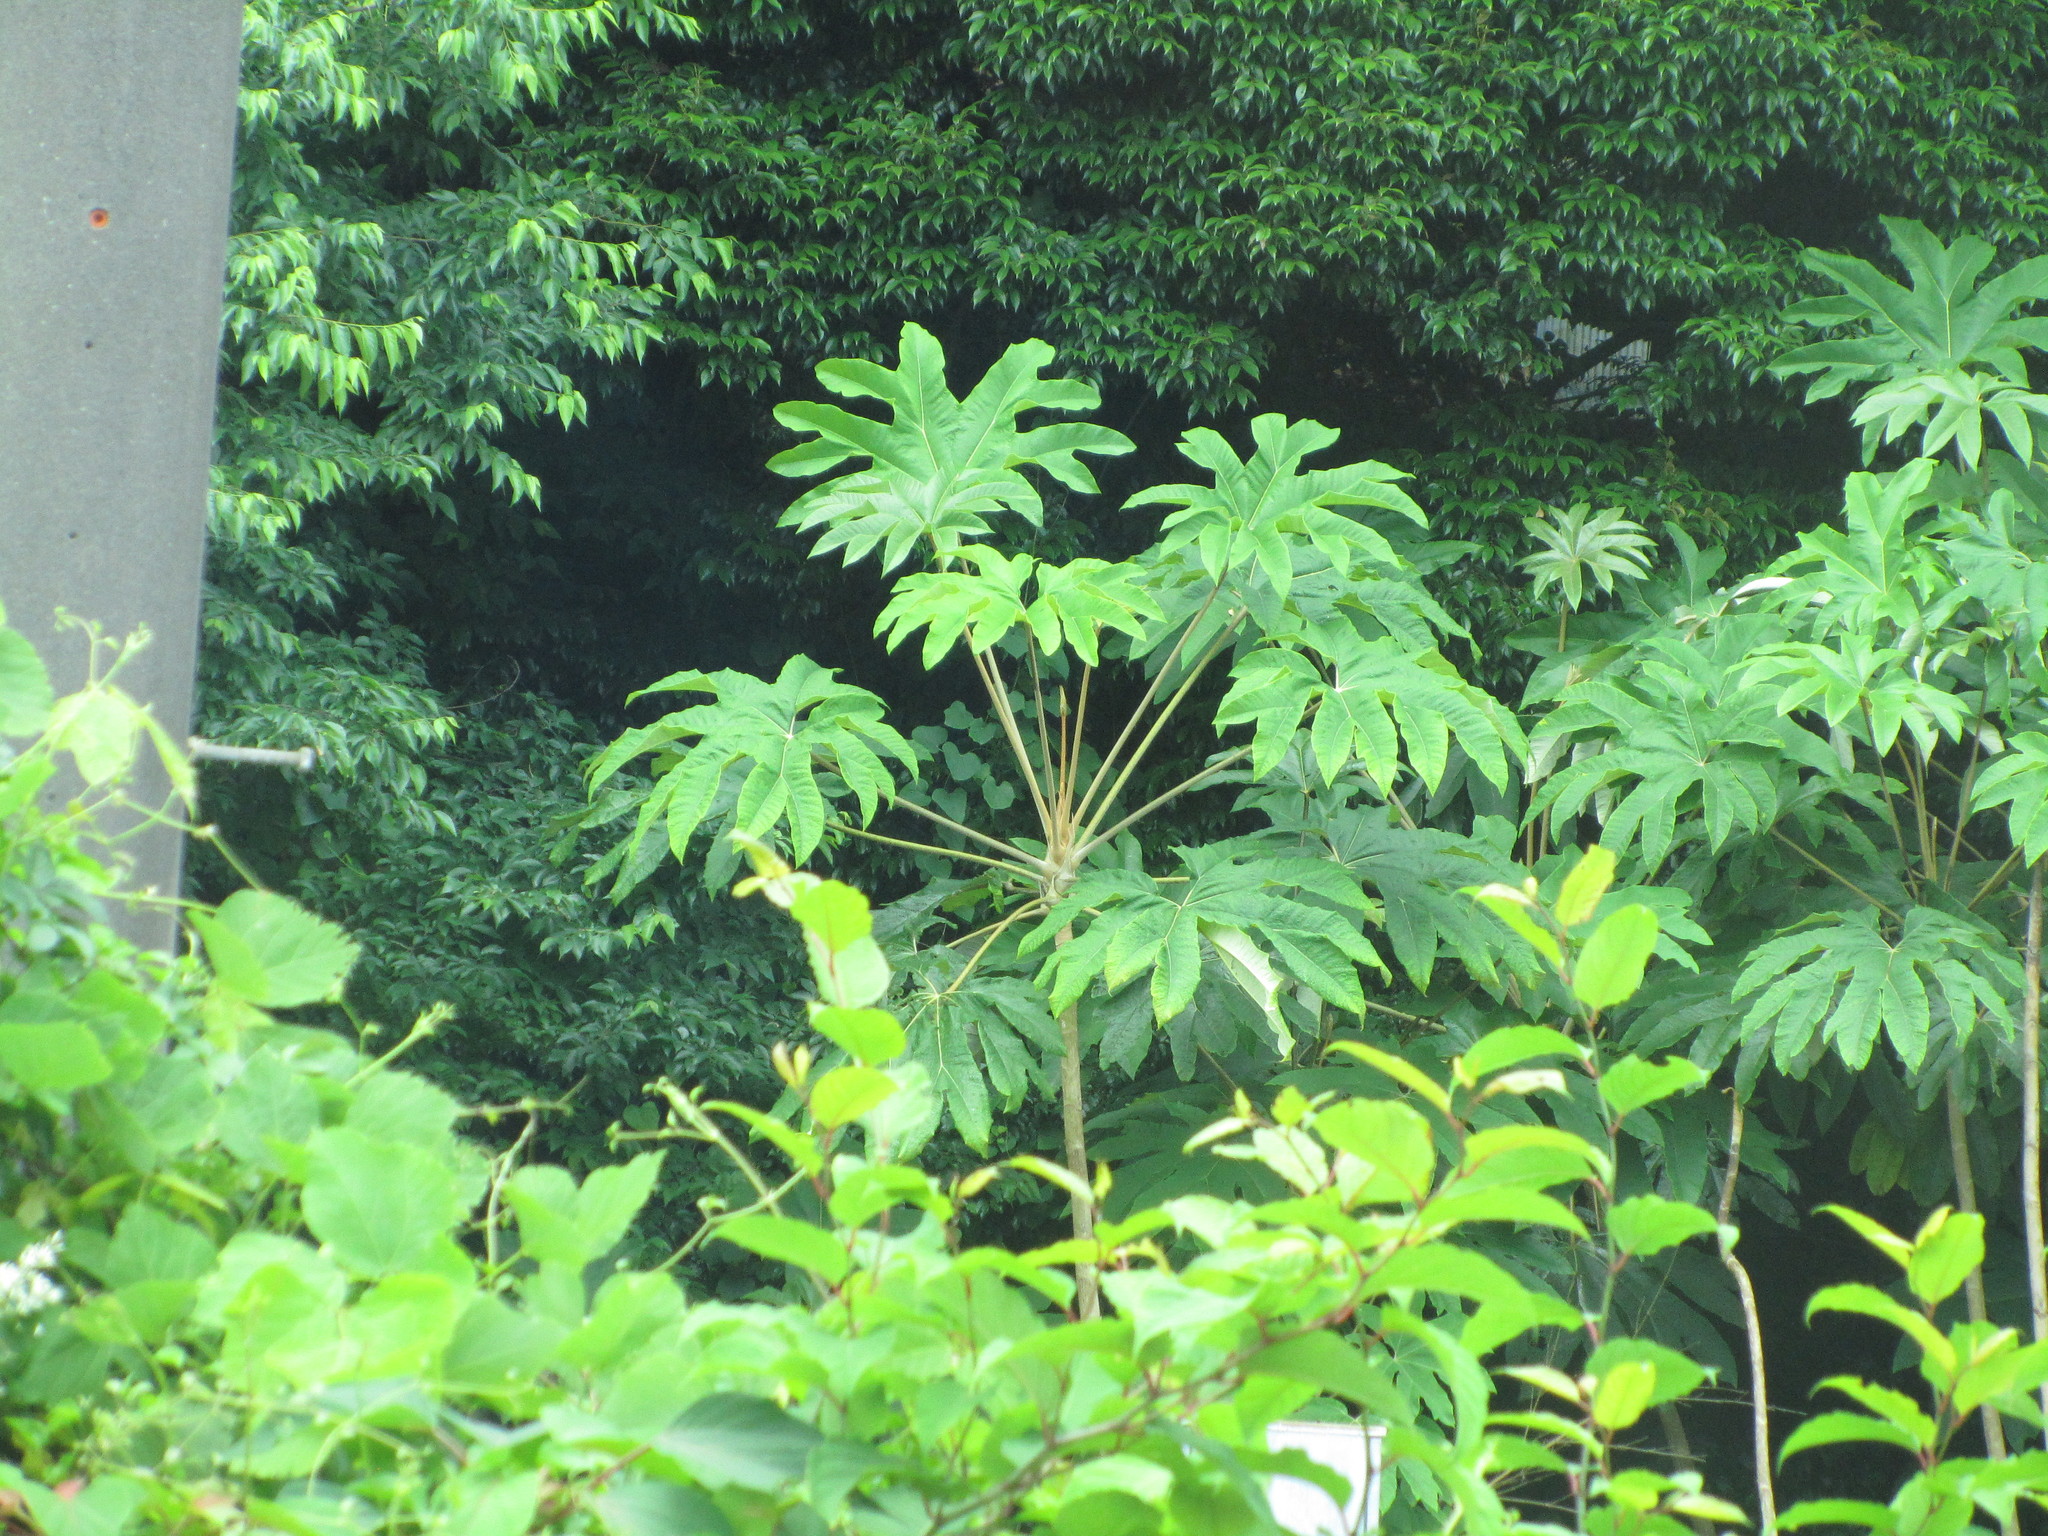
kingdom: Plantae
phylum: Tracheophyta
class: Magnoliopsida
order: Apiales
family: Araliaceae
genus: Tetrapanax
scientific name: Tetrapanax papyrifer
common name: Rice-paper plant
